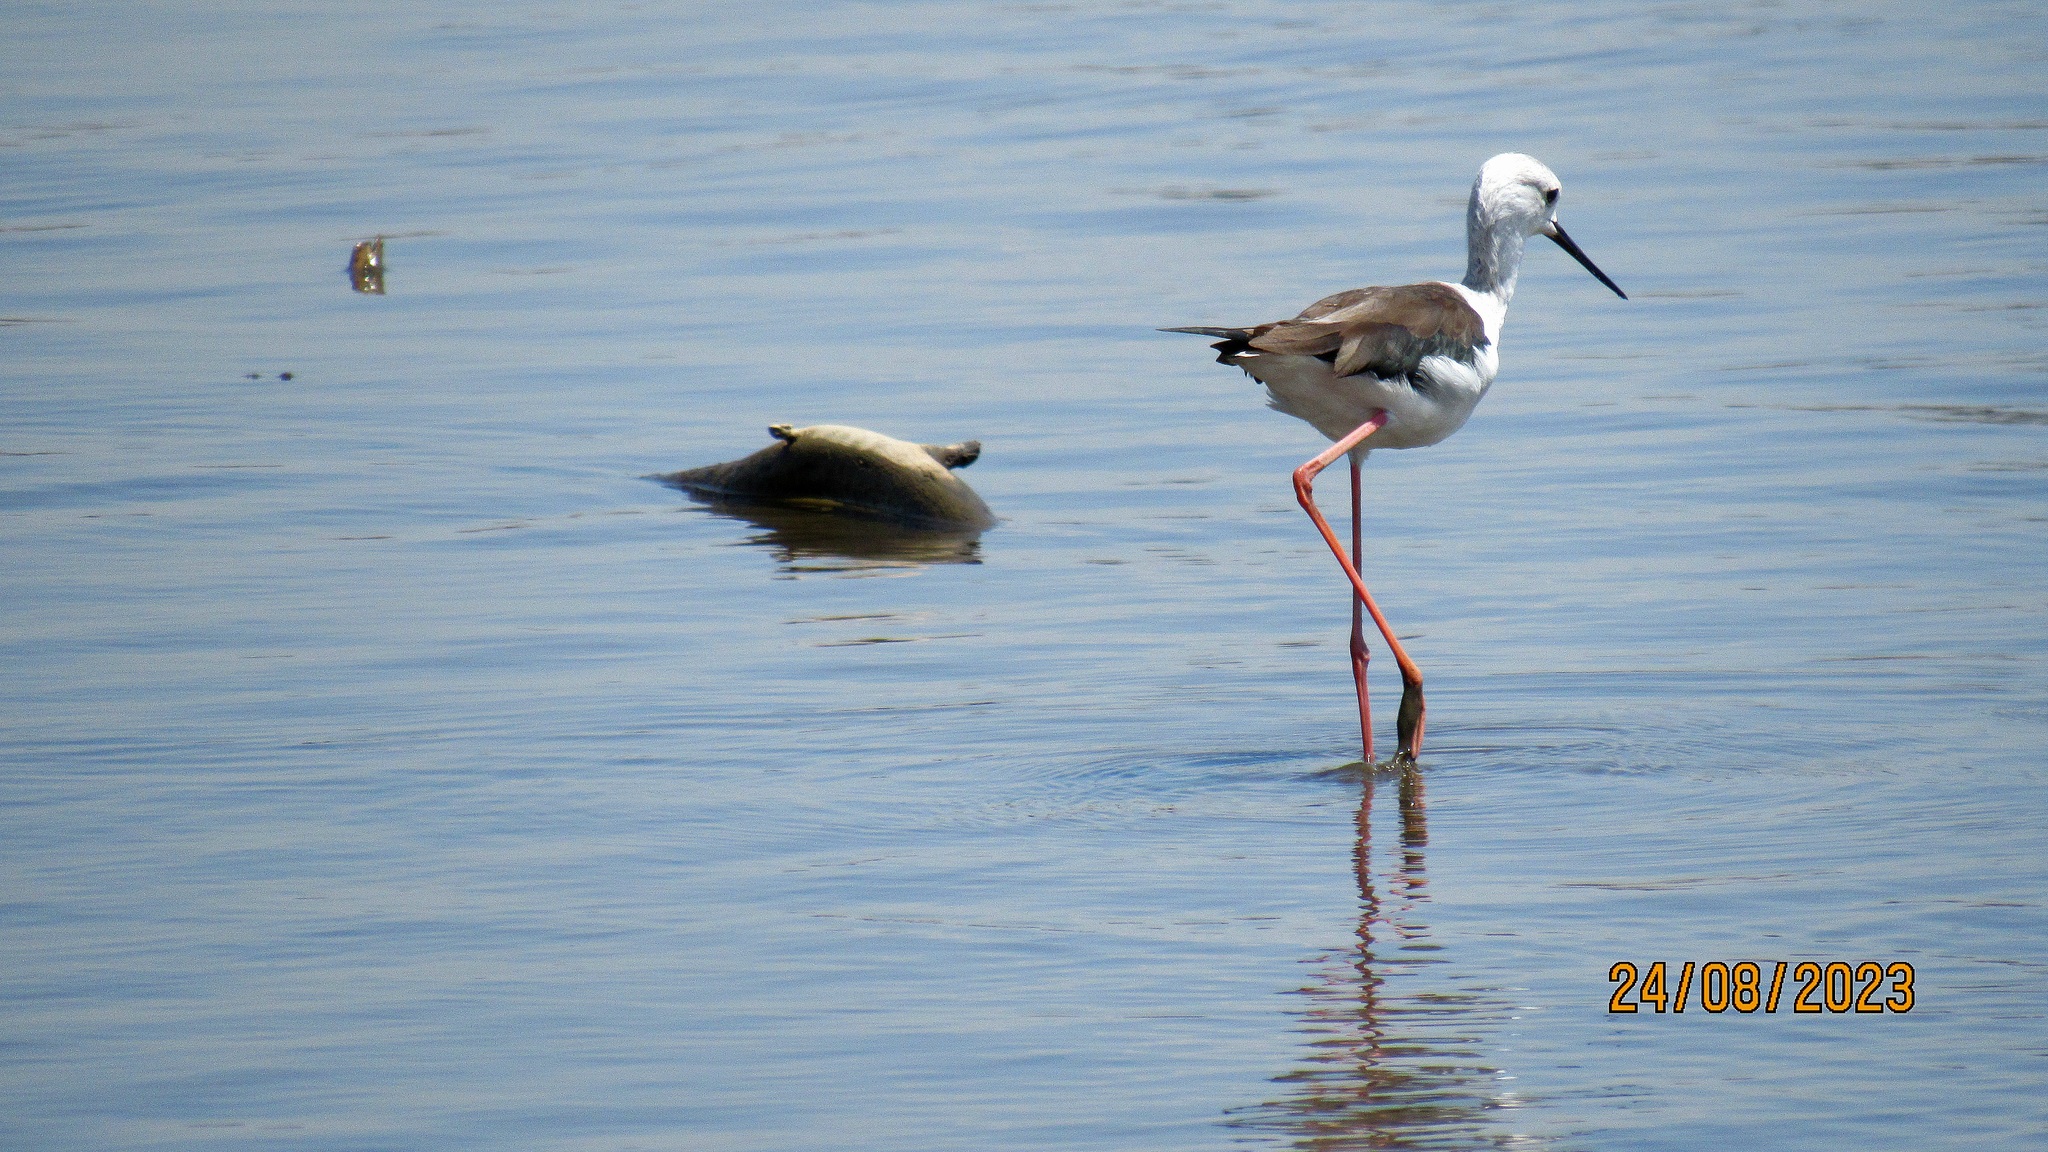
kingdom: Animalia
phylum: Chordata
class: Aves
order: Charadriiformes
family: Recurvirostridae
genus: Himantopus
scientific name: Himantopus himantopus
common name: Black-winged stilt
